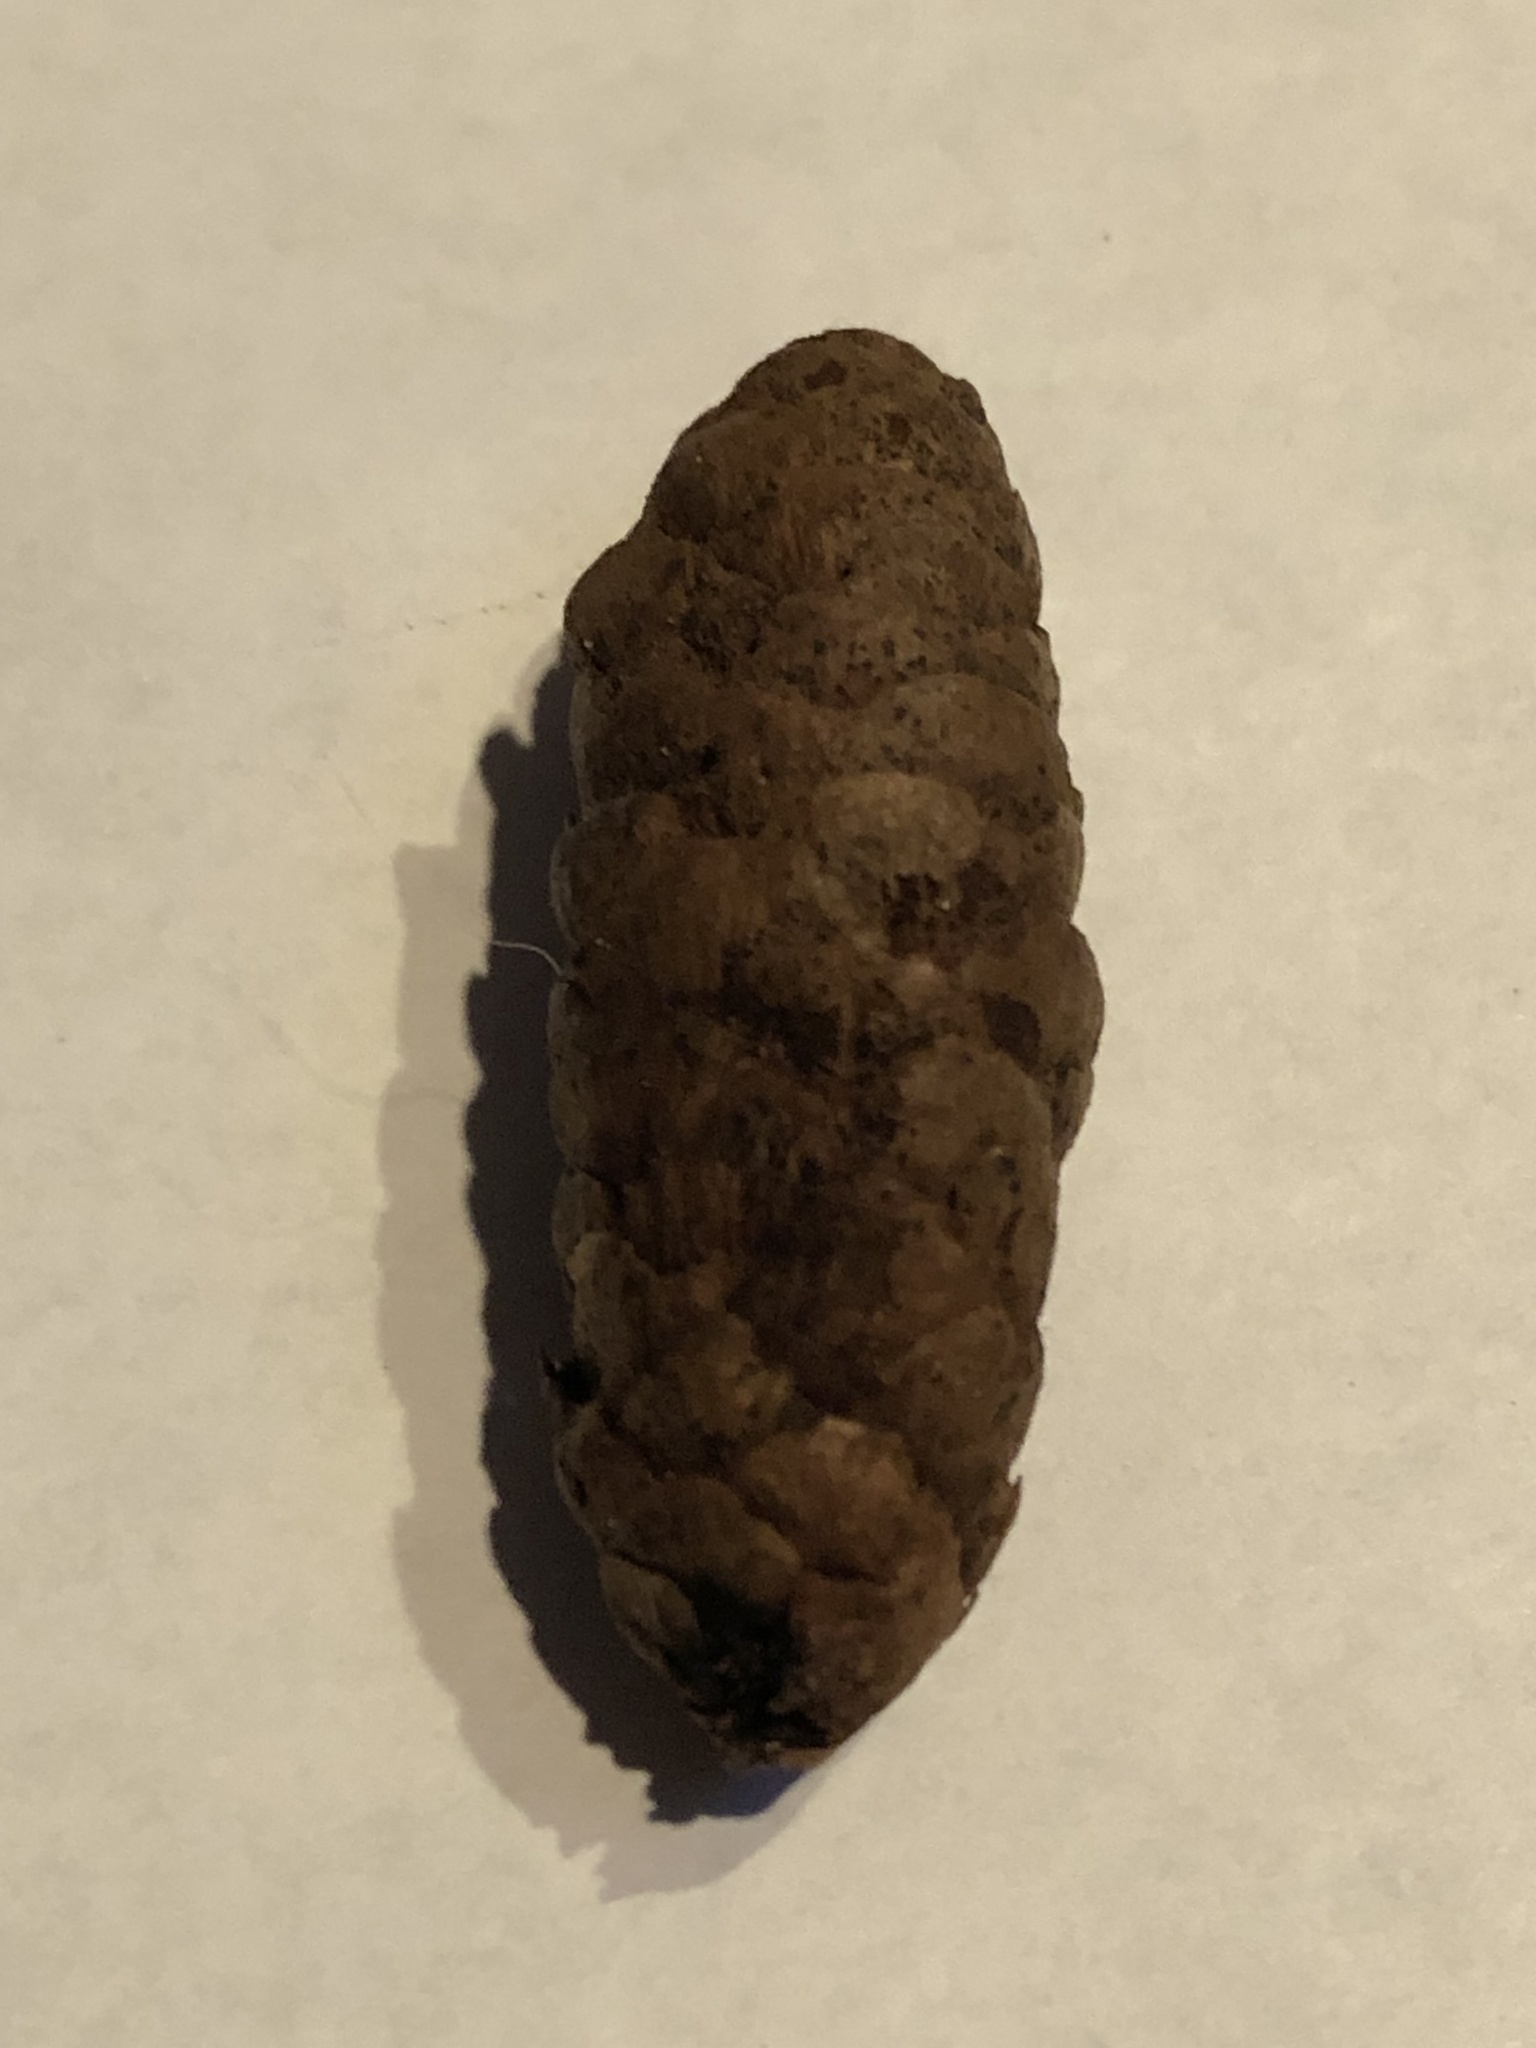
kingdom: Plantae
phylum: Tracheophyta
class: Pinopsida
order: Pinales
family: Pinaceae
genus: Picea
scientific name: Picea glauca
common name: White spruce
